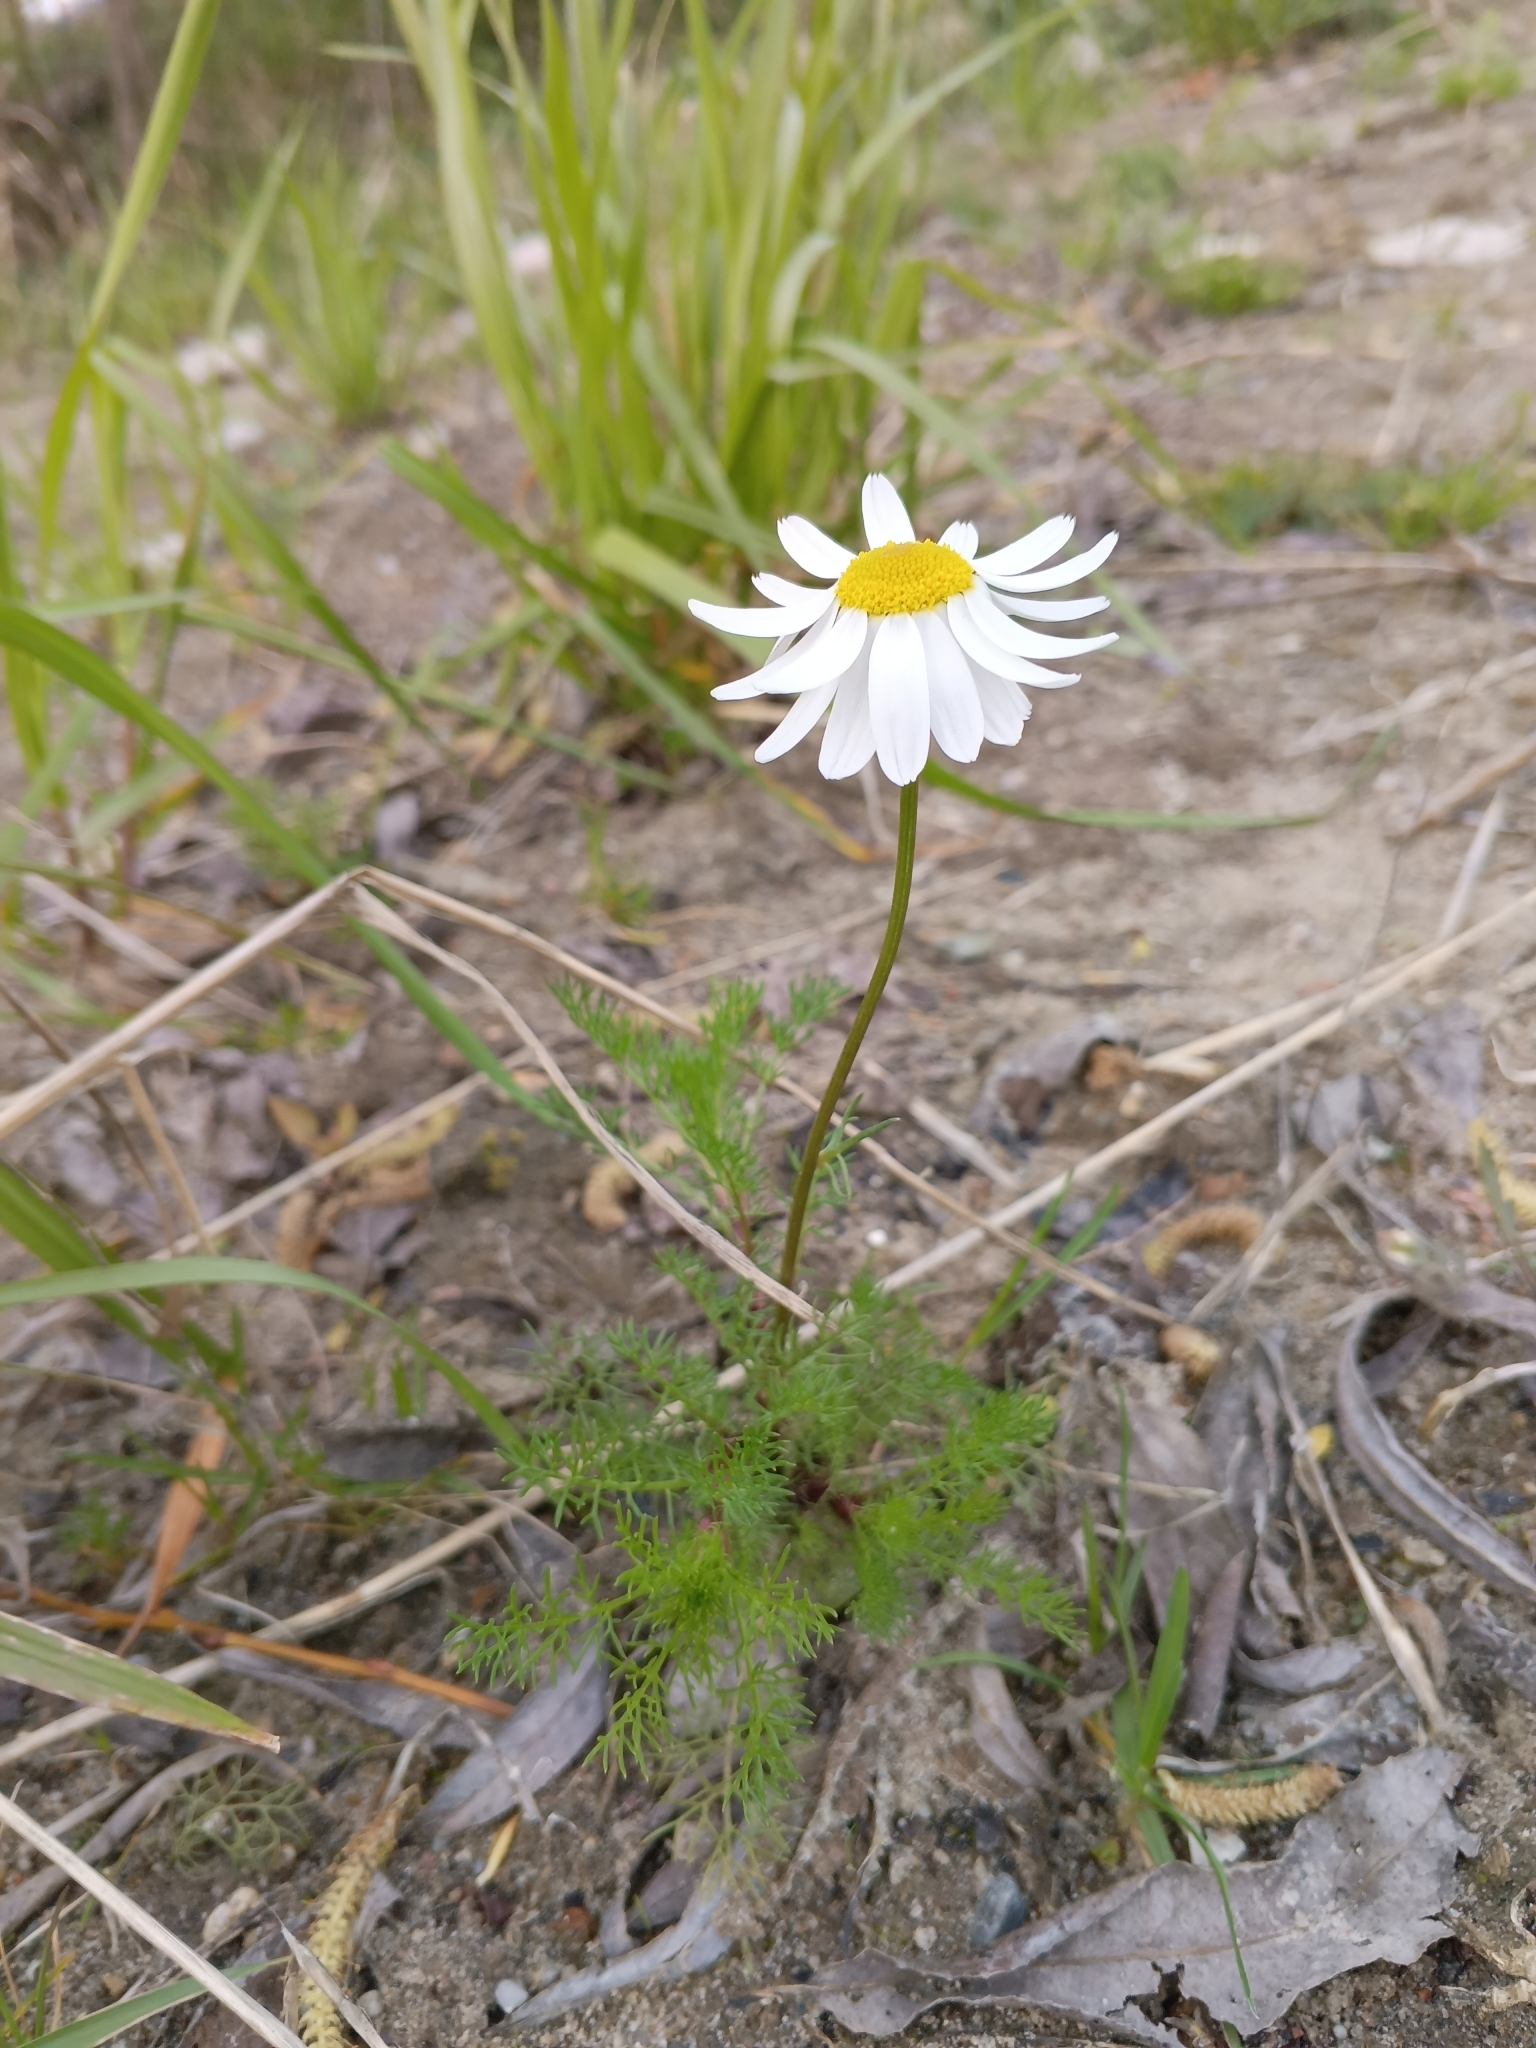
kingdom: Plantae
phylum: Tracheophyta
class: Magnoliopsida
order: Asterales
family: Asteraceae
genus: Tripleurospermum
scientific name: Tripleurospermum inodorum
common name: Scentless mayweed
